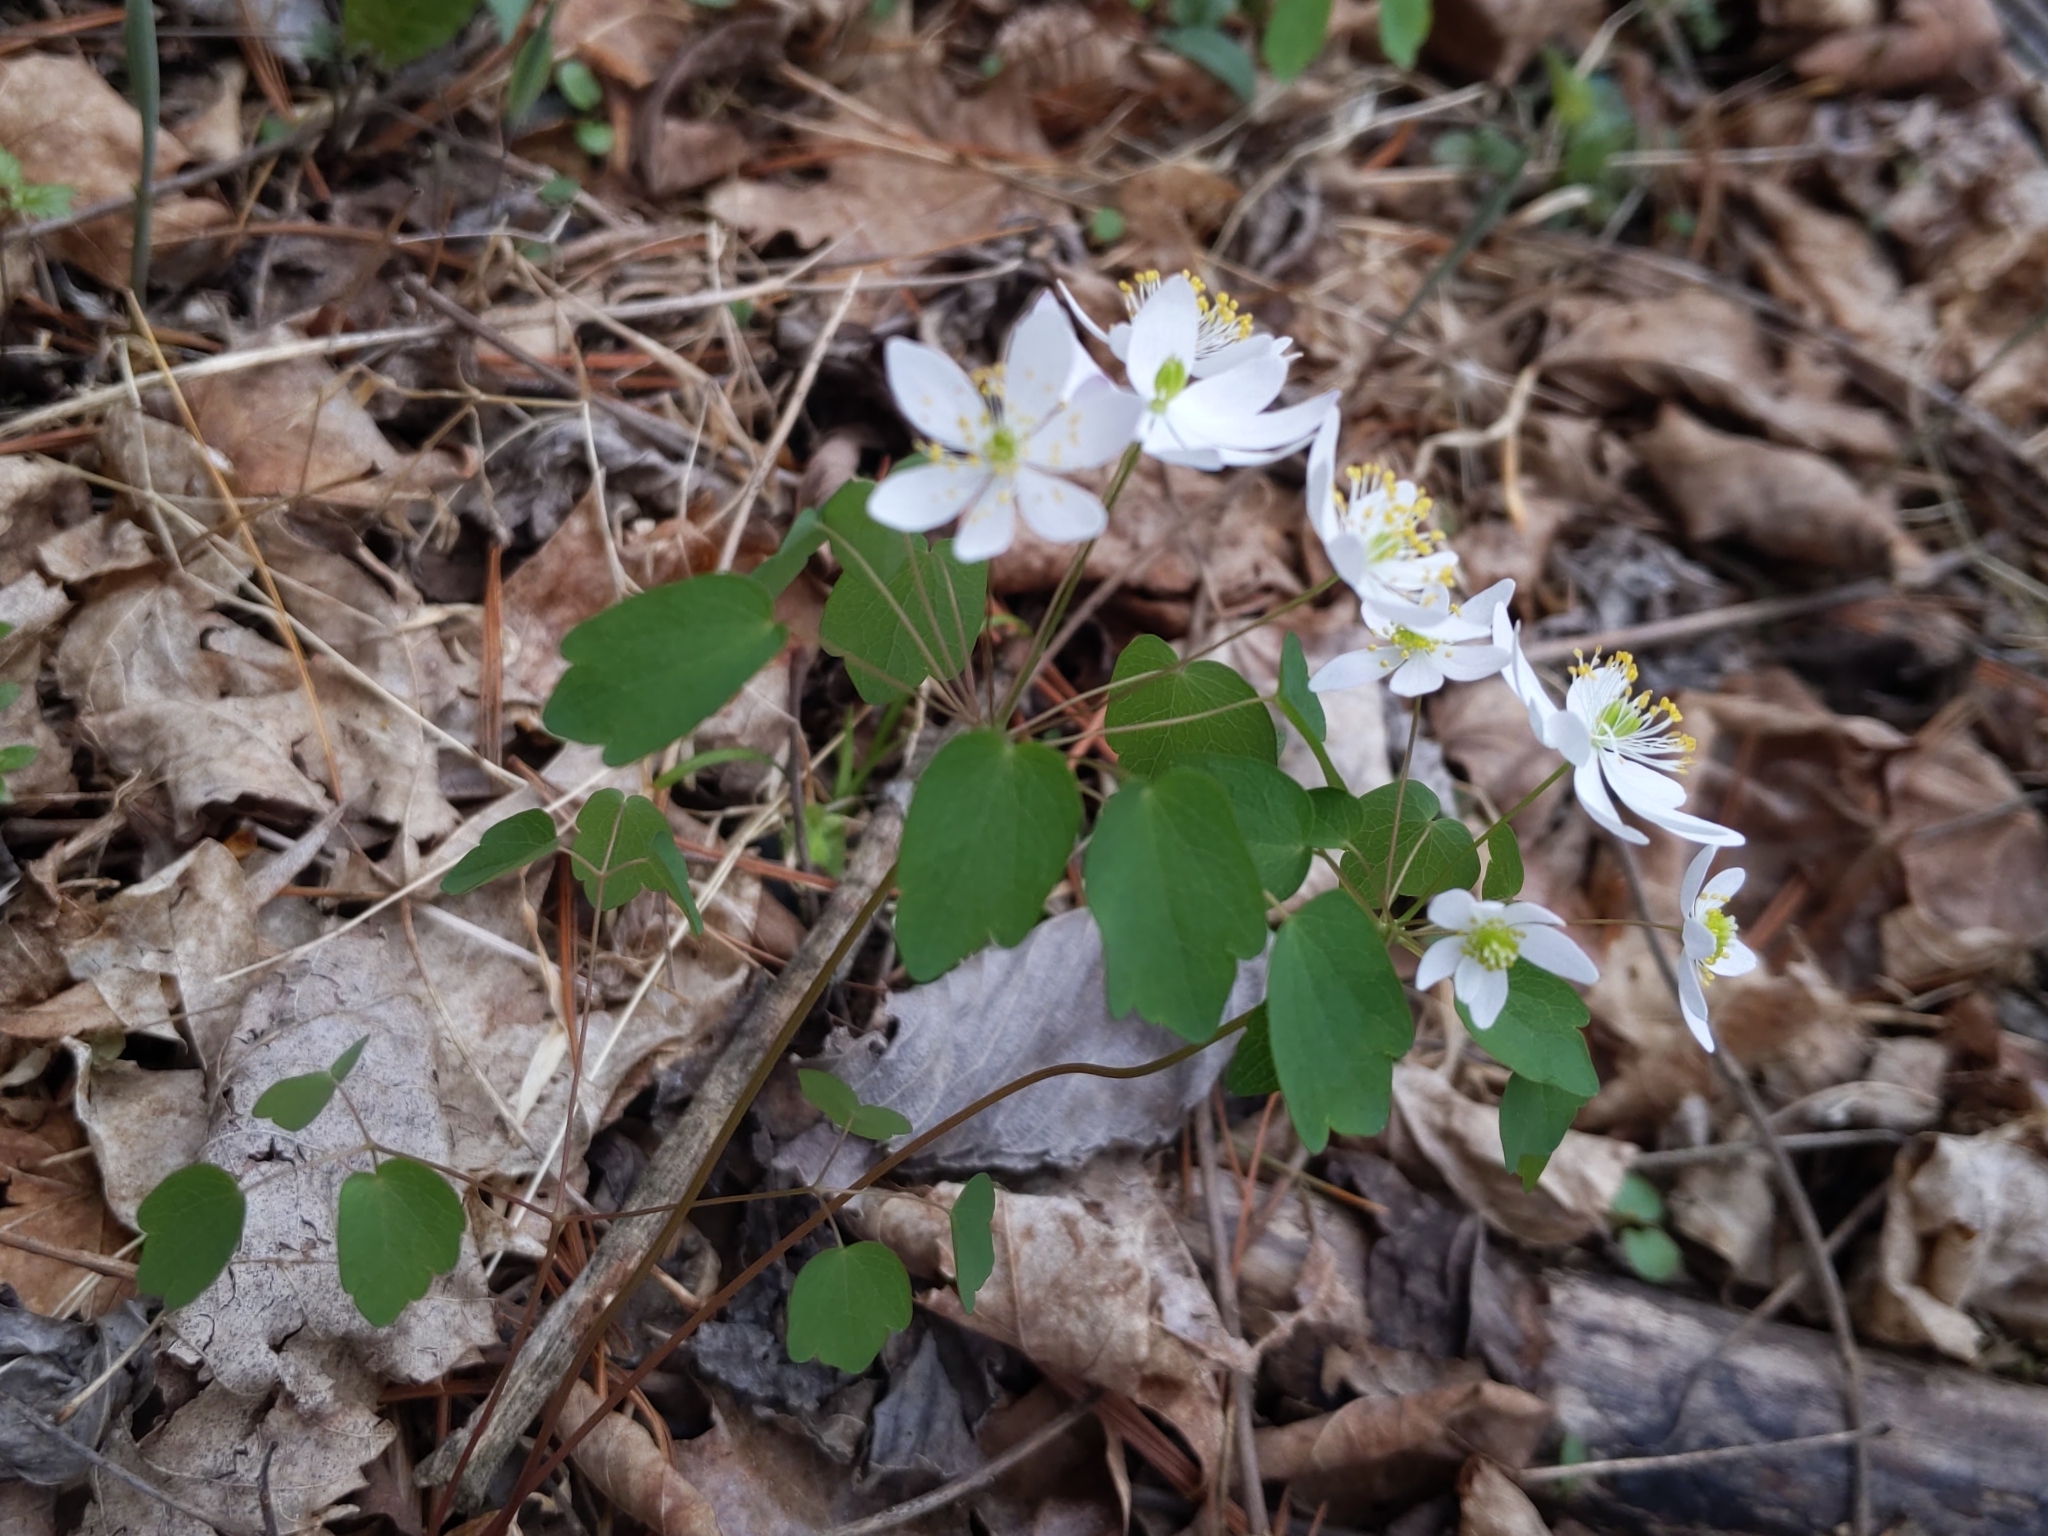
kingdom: Plantae
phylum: Tracheophyta
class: Magnoliopsida
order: Ranunculales
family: Ranunculaceae
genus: Thalictrum
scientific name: Thalictrum thalictroides
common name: Rue-anemone
